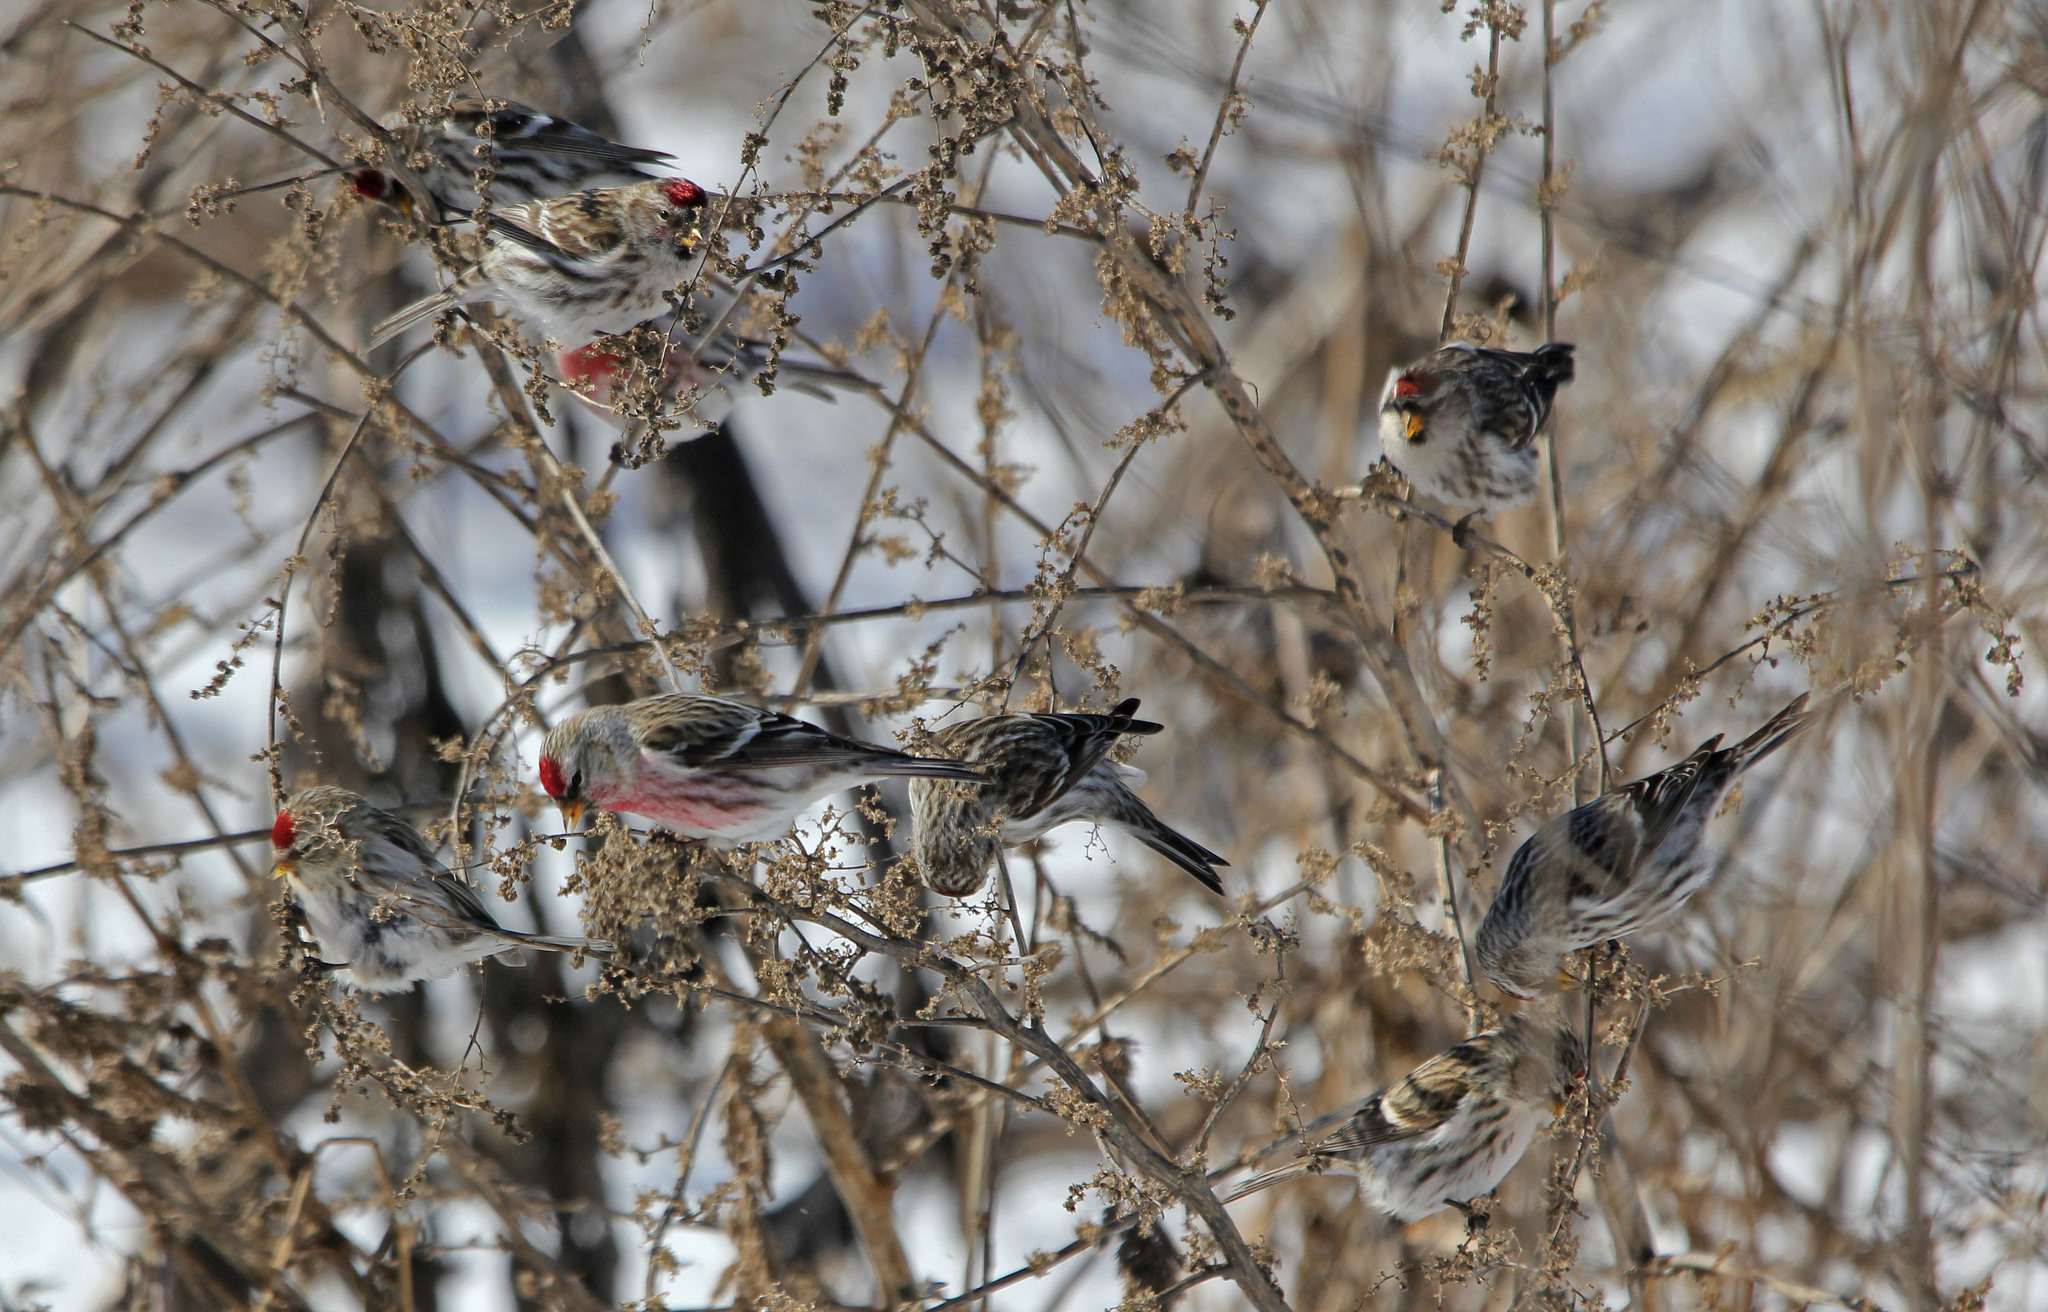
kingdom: Animalia
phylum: Chordata
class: Aves
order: Passeriformes
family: Fringillidae
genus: Acanthis
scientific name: Acanthis flammea
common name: Common redpoll
